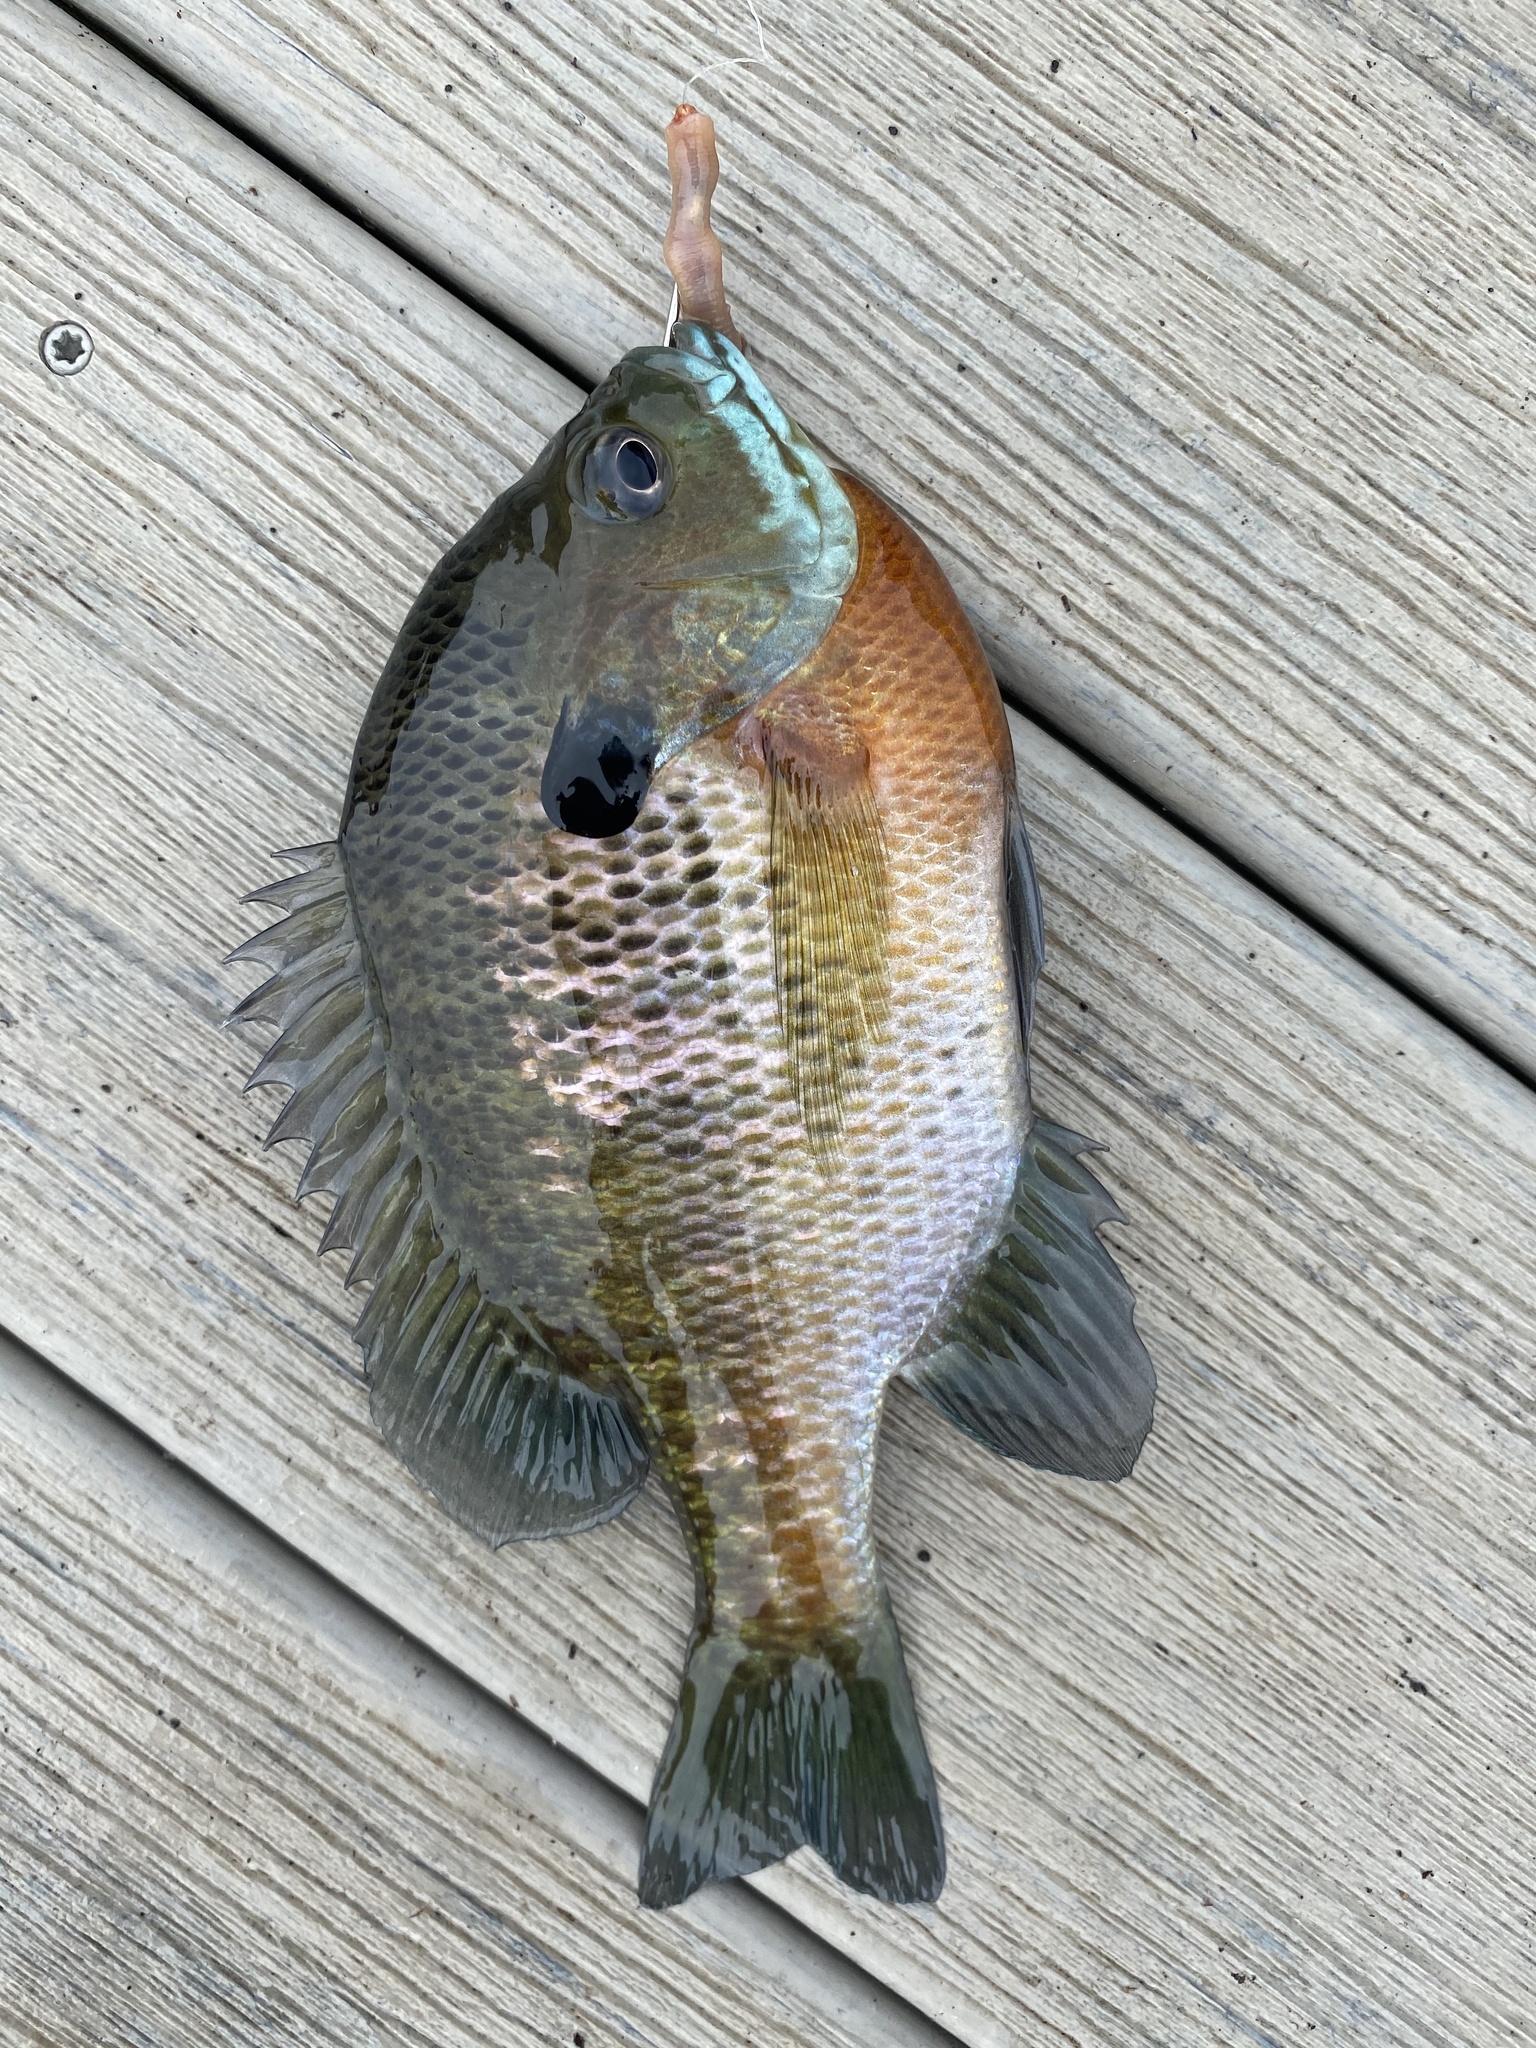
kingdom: Animalia
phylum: Chordata
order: Perciformes
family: Centrarchidae
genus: Lepomis
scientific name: Lepomis macrochirus
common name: Bluegill
